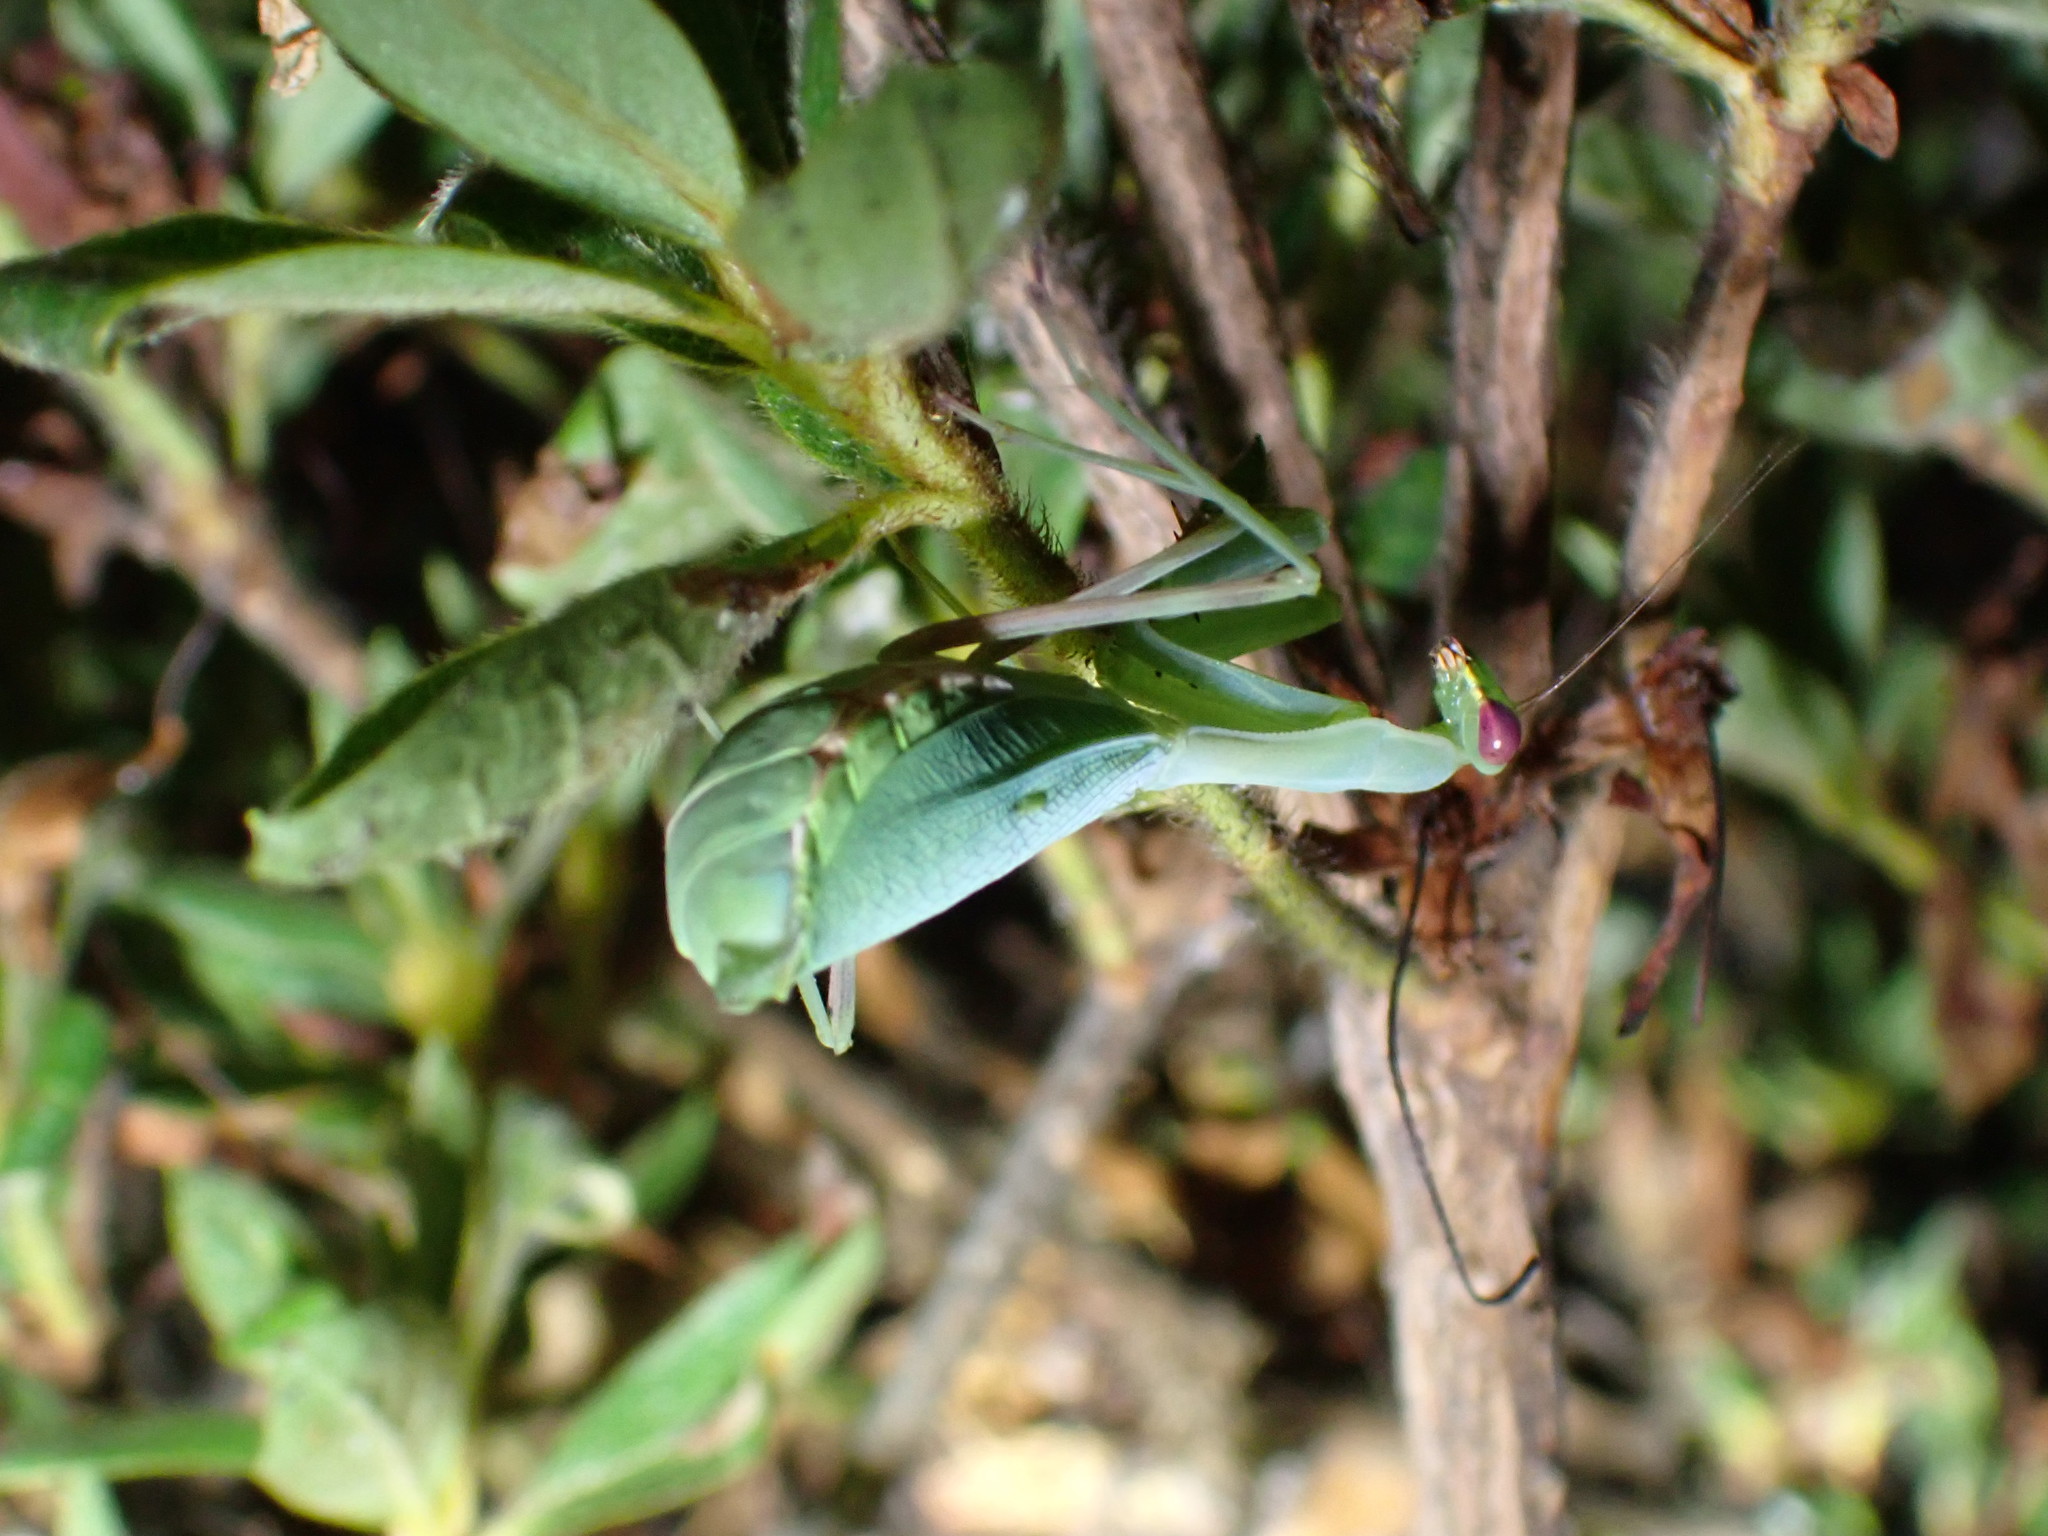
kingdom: Animalia
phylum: Arthropoda
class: Insecta
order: Mantodea
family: Miomantidae
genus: Miomantis
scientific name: Miomantis caffra
